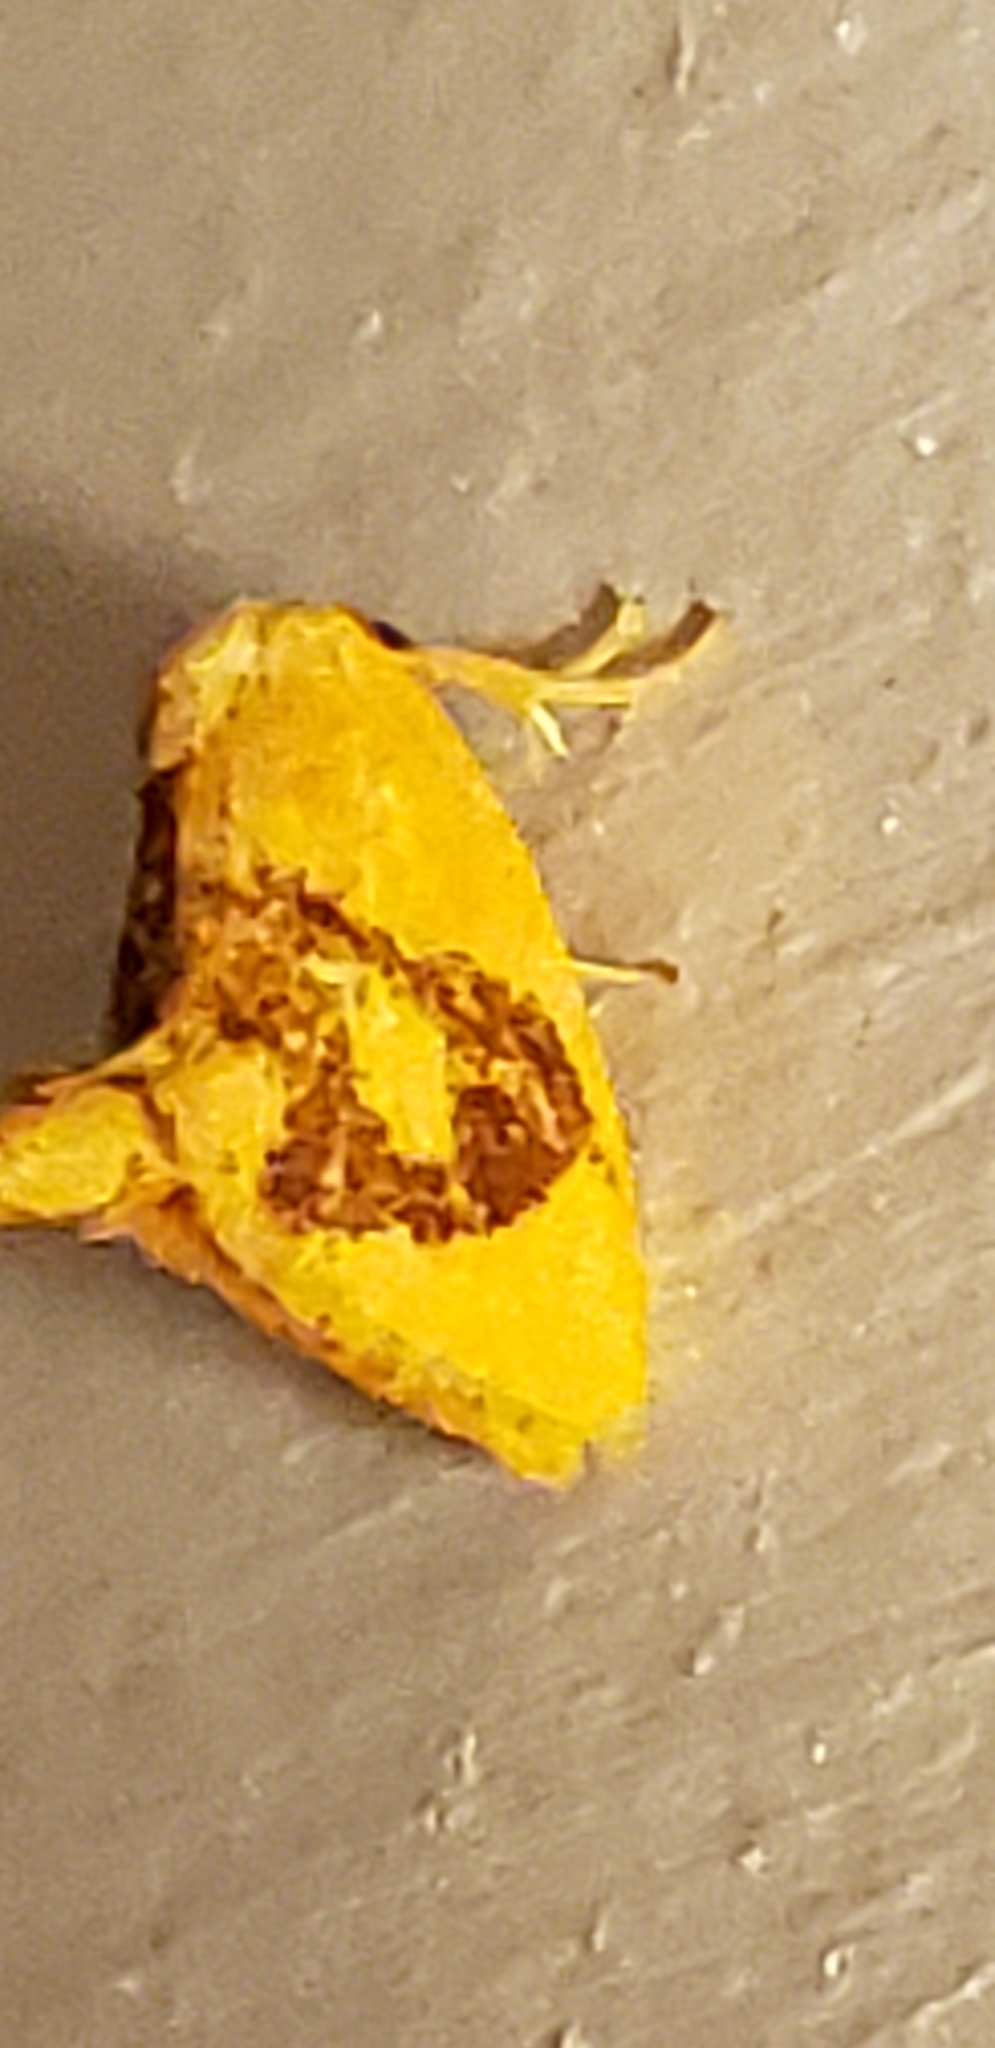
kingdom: Animalia
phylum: Arthropoda
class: Insecta
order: Lepidoptera
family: Limacodidae
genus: Tortricidia
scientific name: Tortricidia flexuosa
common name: Abbreviated button slug moth
